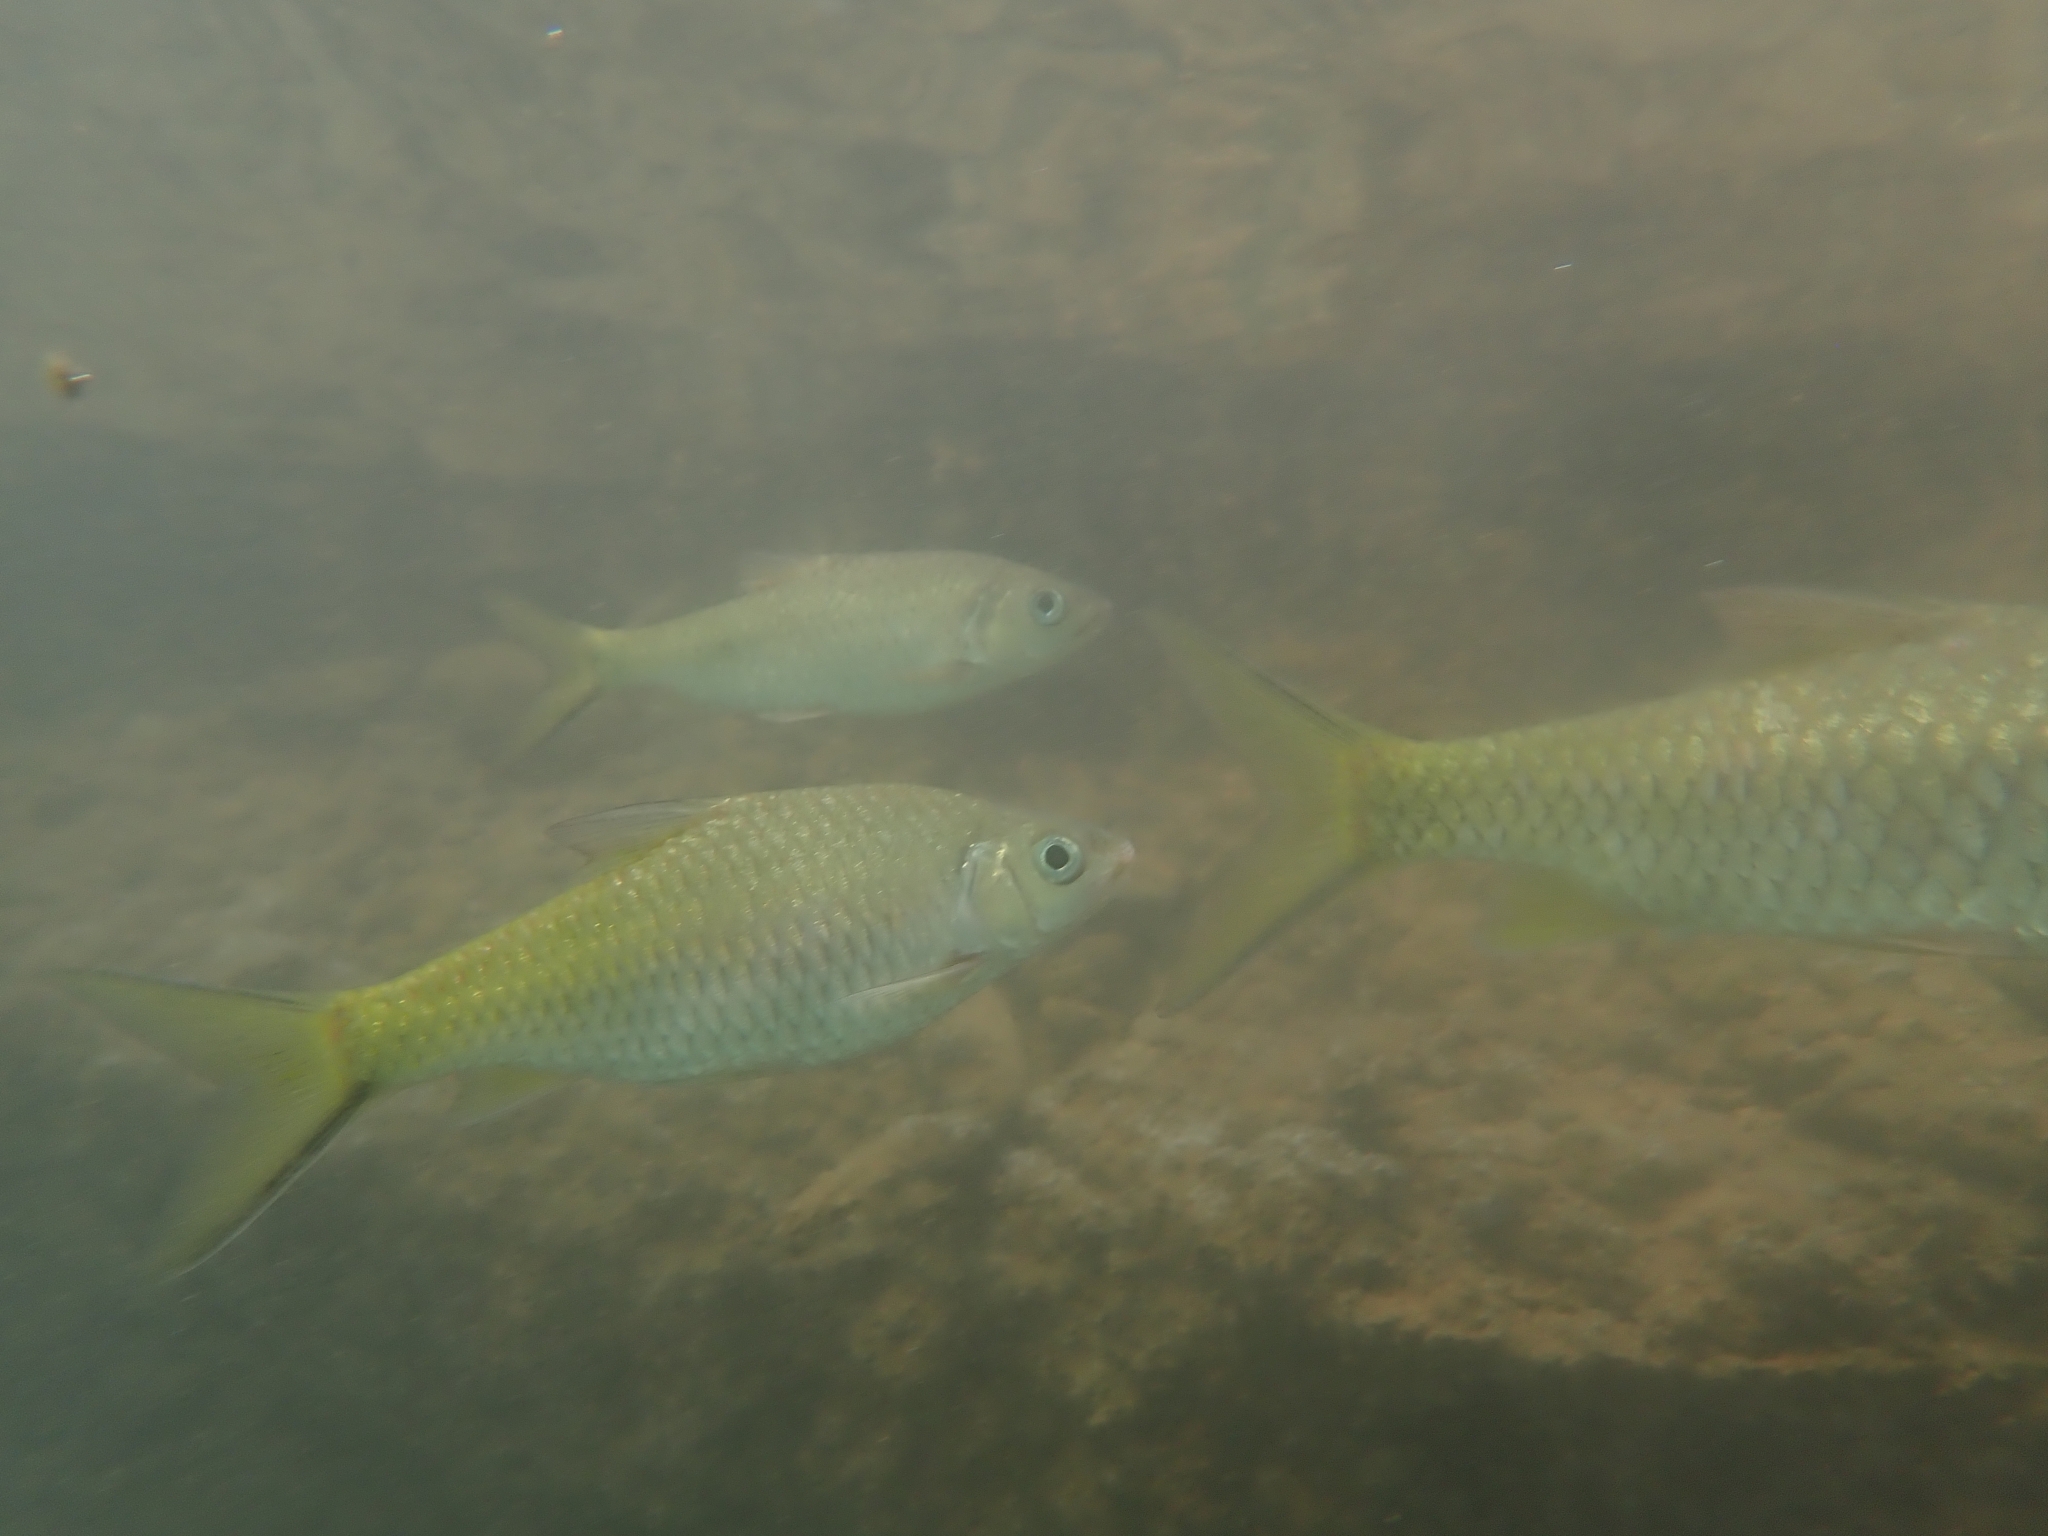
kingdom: Animalia
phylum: Chordata
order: Cypriniformes
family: Cyprinidae
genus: Poropuntius
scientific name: Poropuntius laoensis
